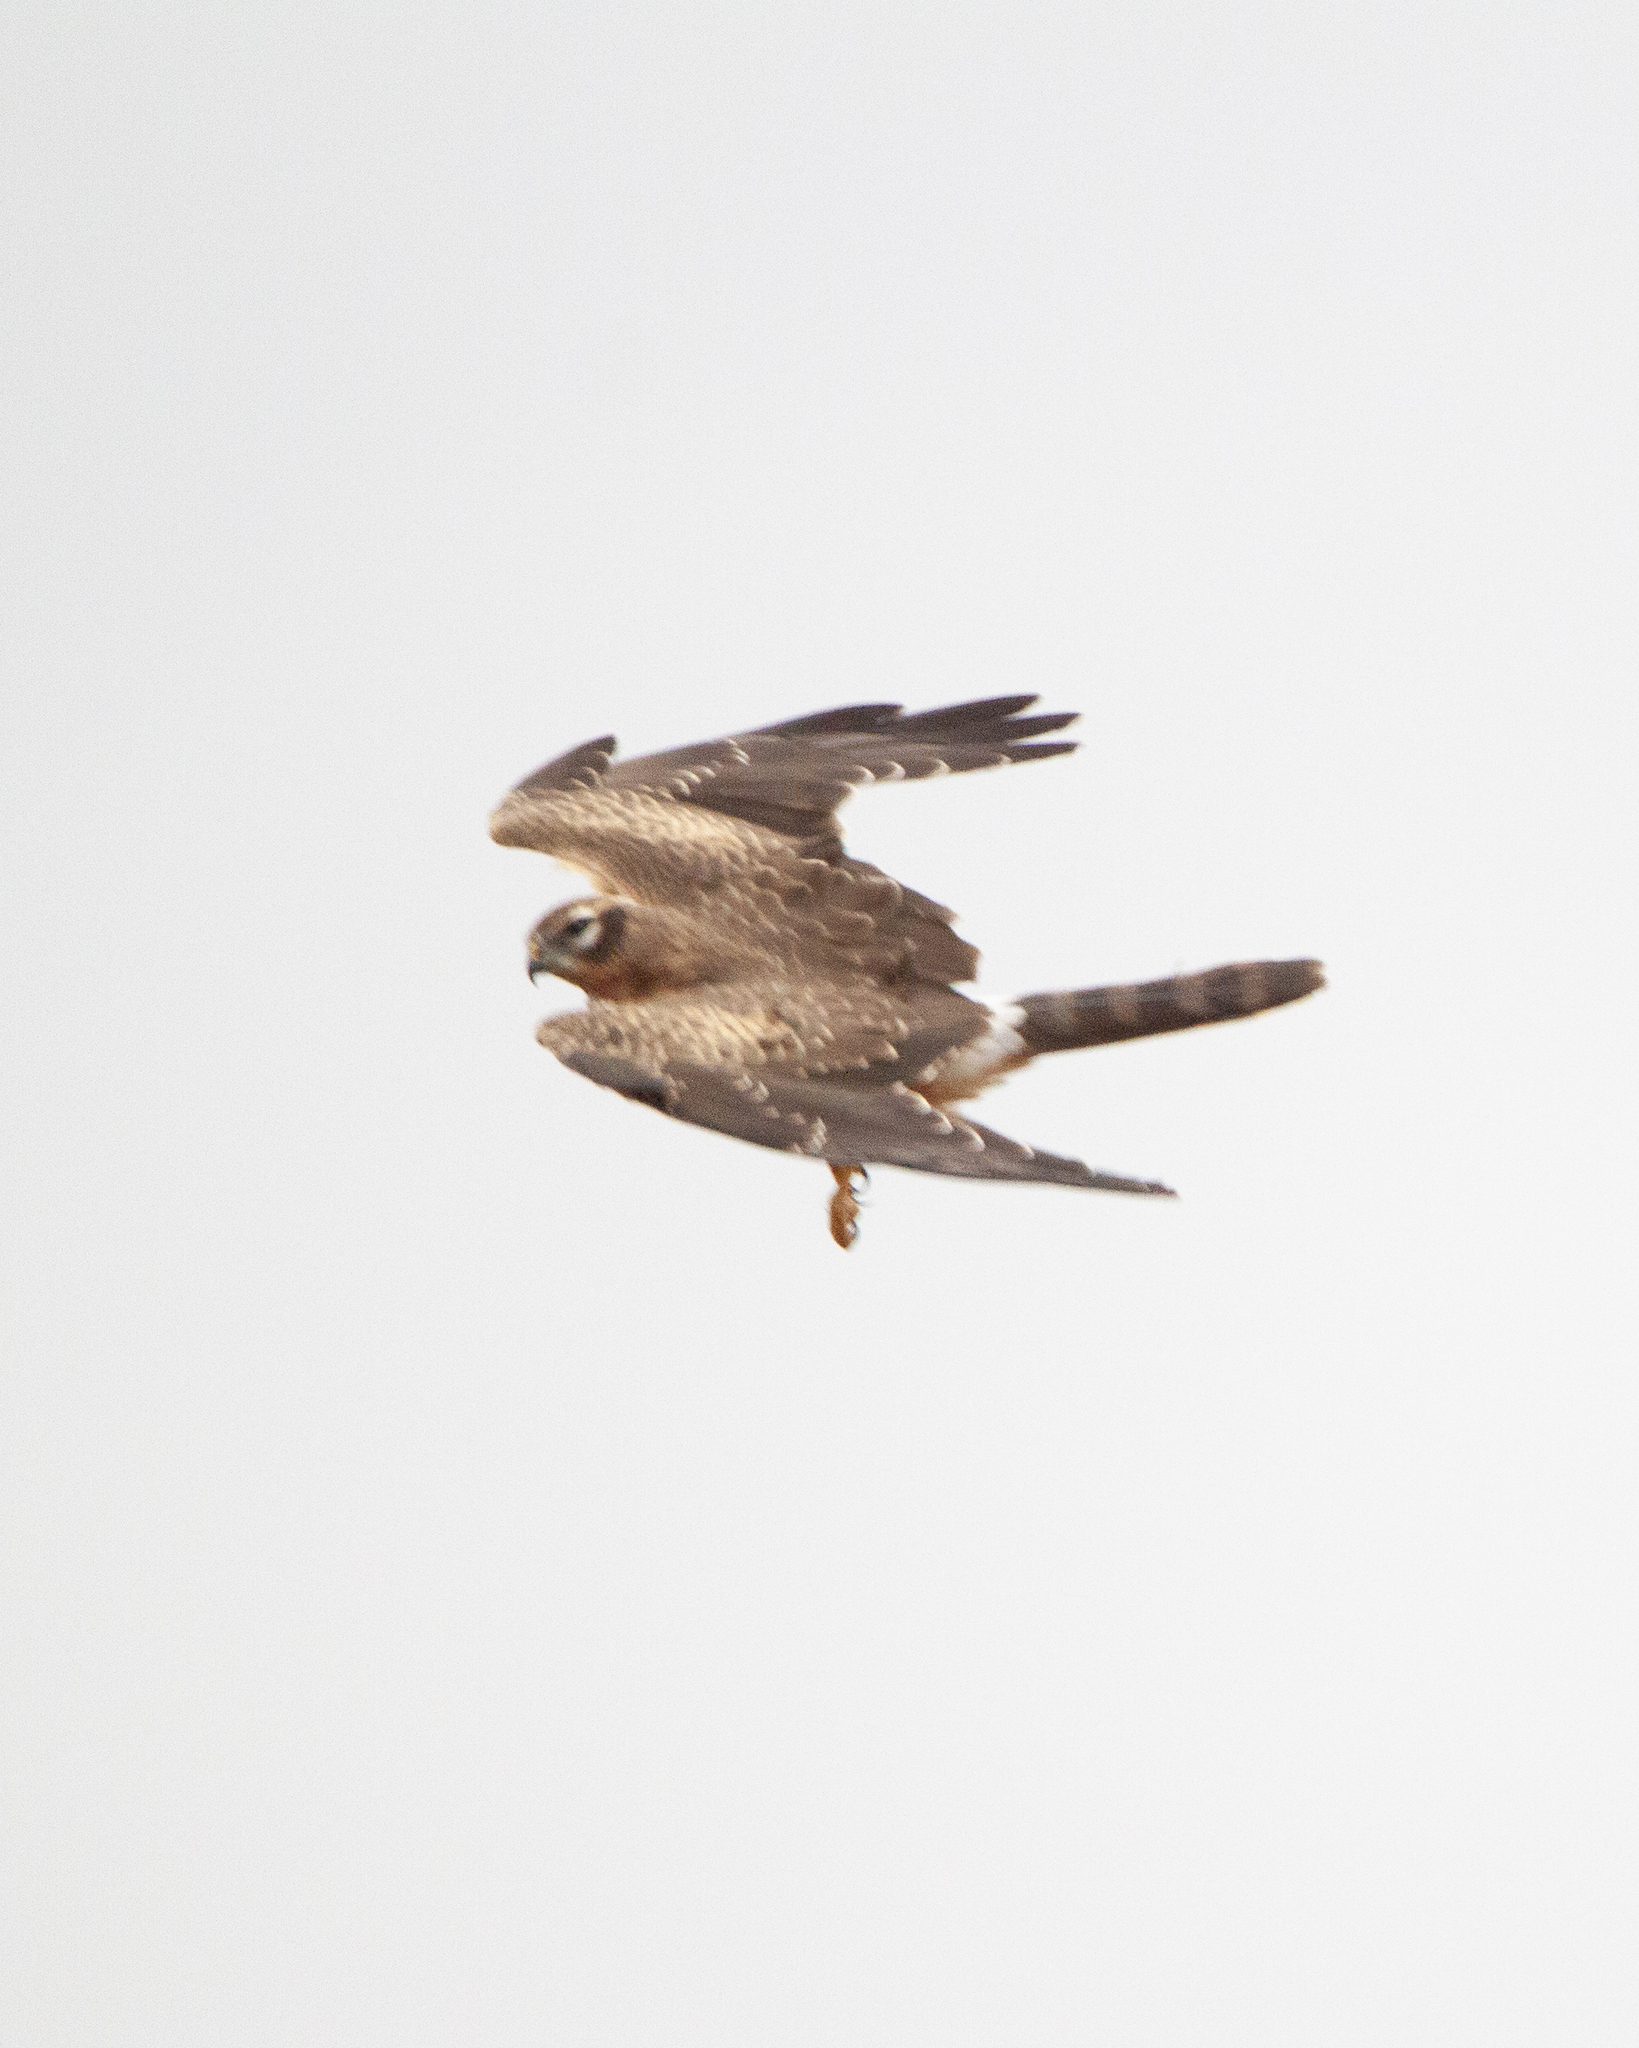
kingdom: Animalia
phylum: Chordata
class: Aves
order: Accipitriformes
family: Accipitridae
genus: Circus
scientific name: Circus pygargus
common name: Montagu's harrier
